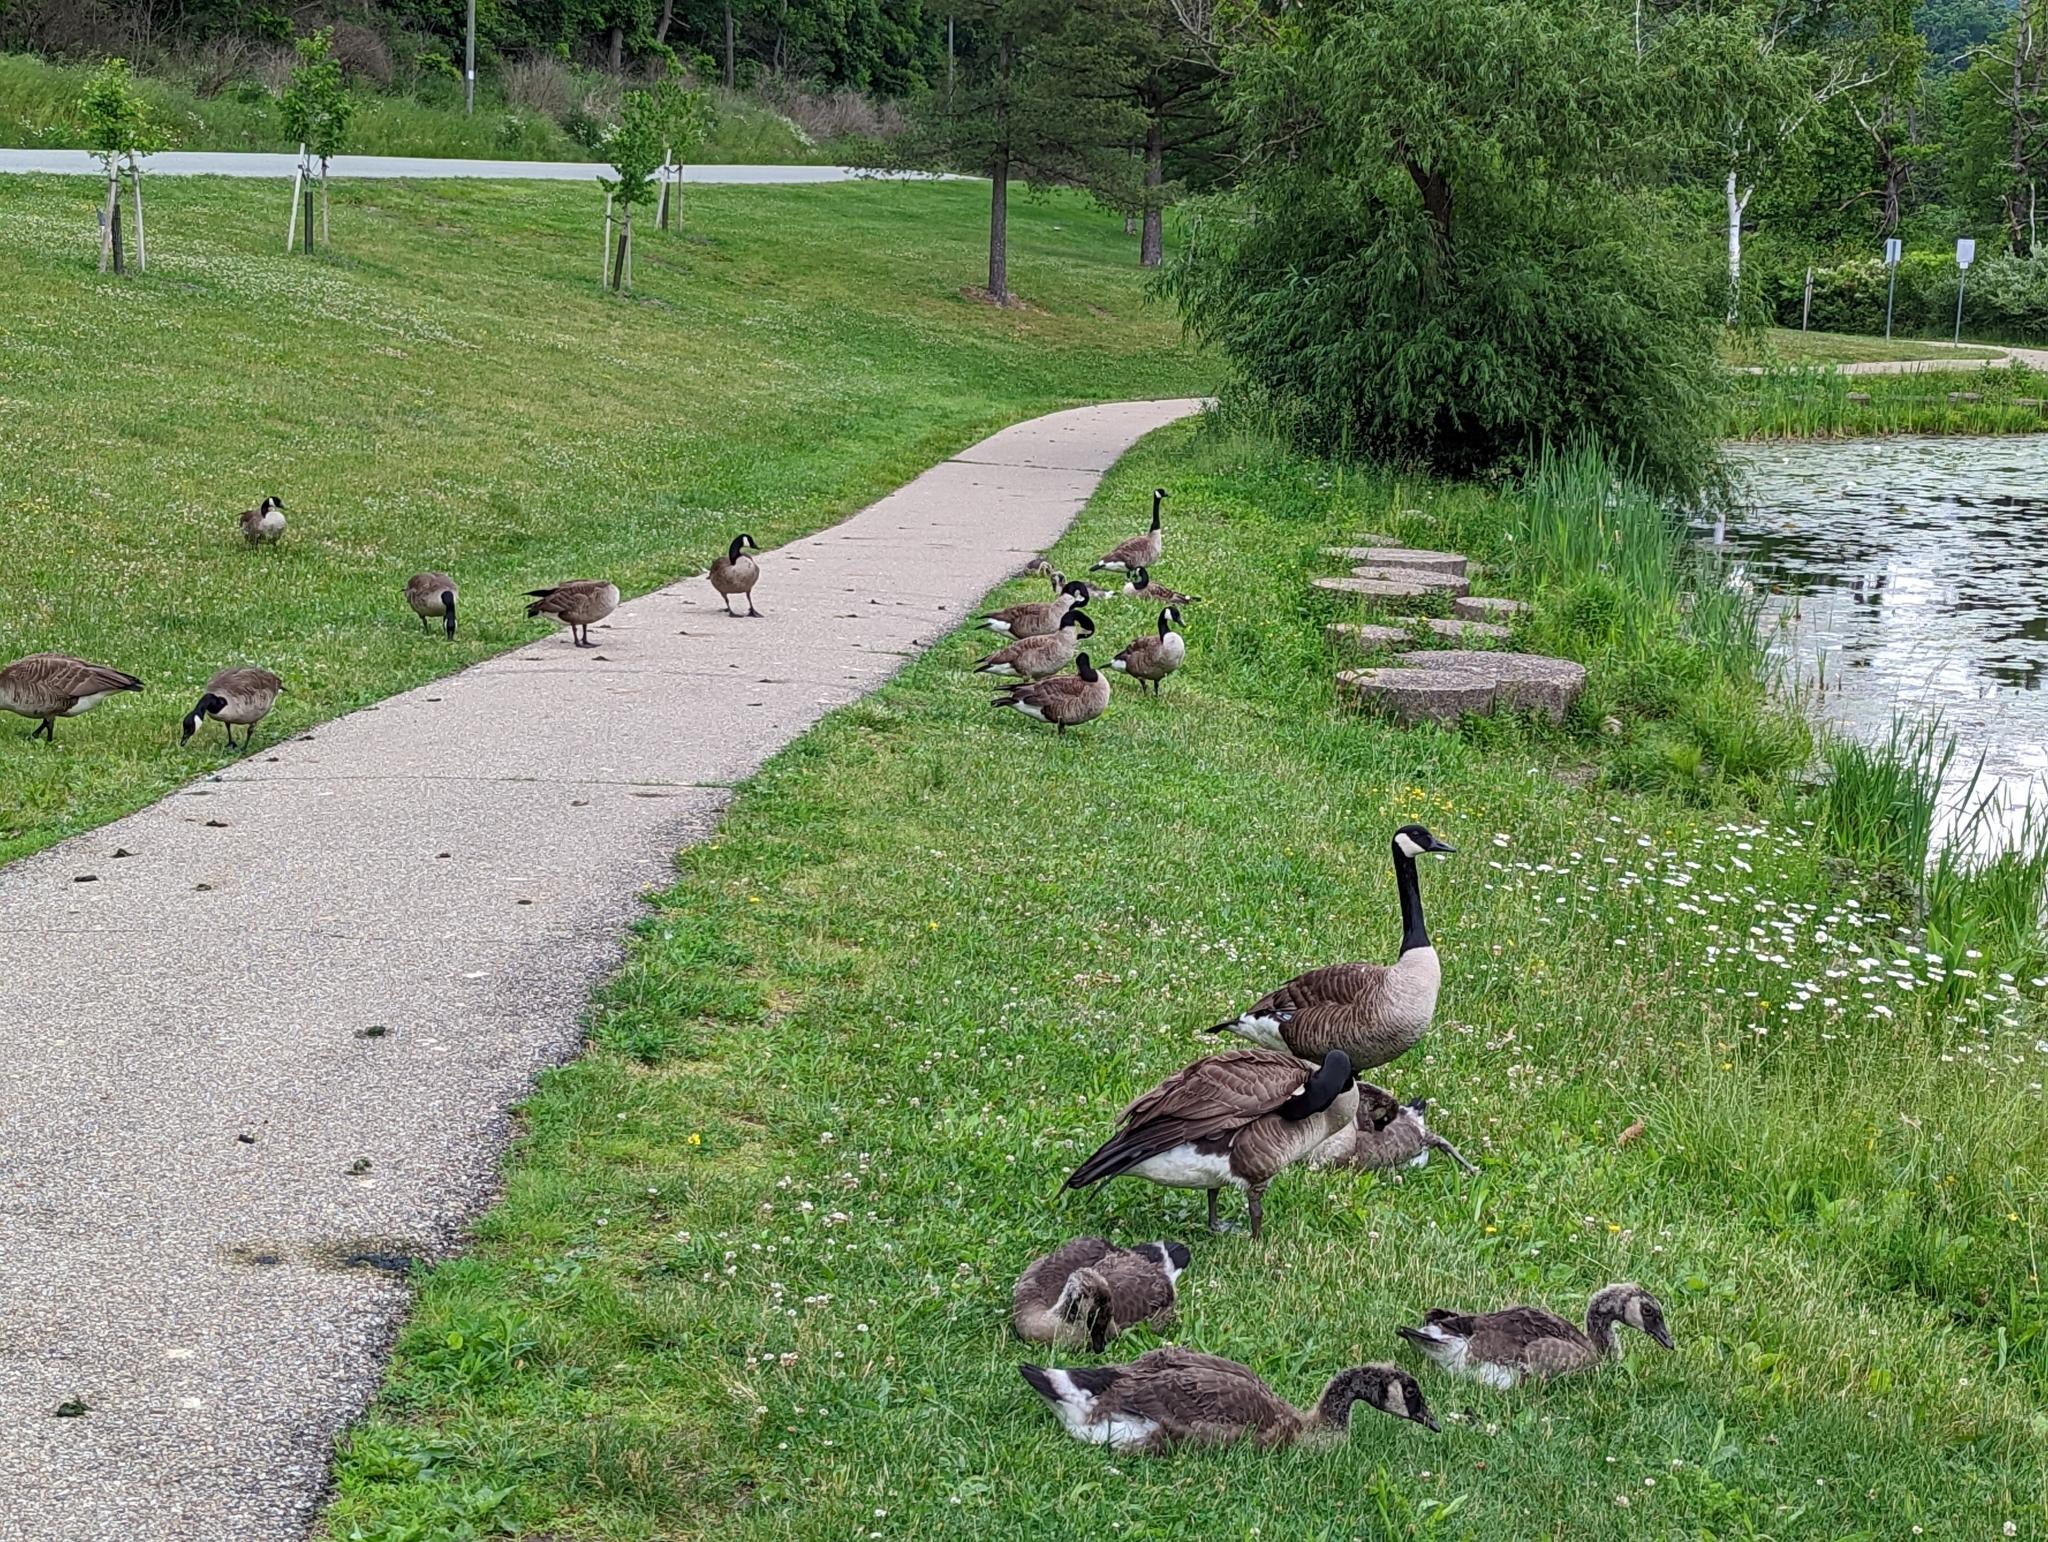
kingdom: Animalia
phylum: Chordata
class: Aves
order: Anseriformes
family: Anatidae
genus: Branta
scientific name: Branta canadensis
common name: Canada goose
